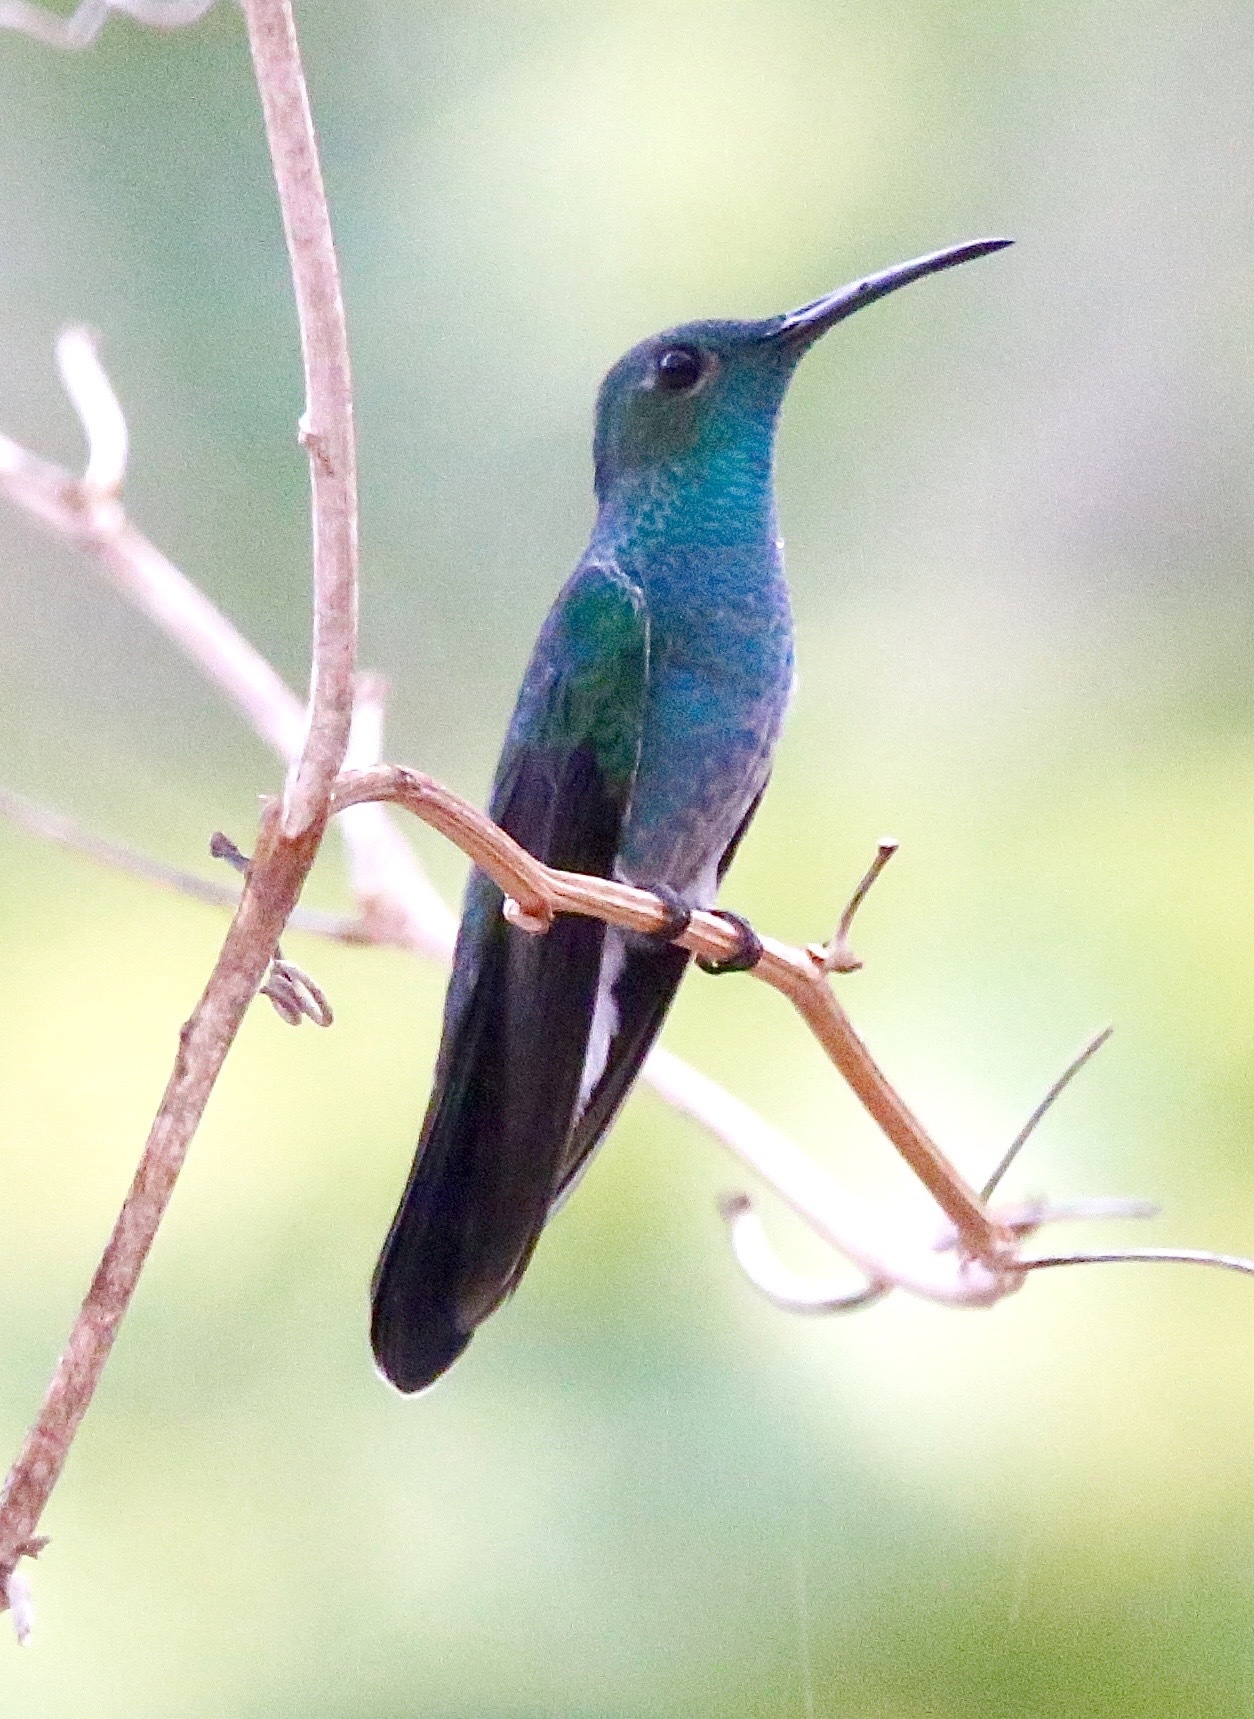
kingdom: Animalia
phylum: Chordata
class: Aves
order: Apodiformes
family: Trochilidae
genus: Chalybura
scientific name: Chalybura buffonii
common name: White-vented plumeleteer
